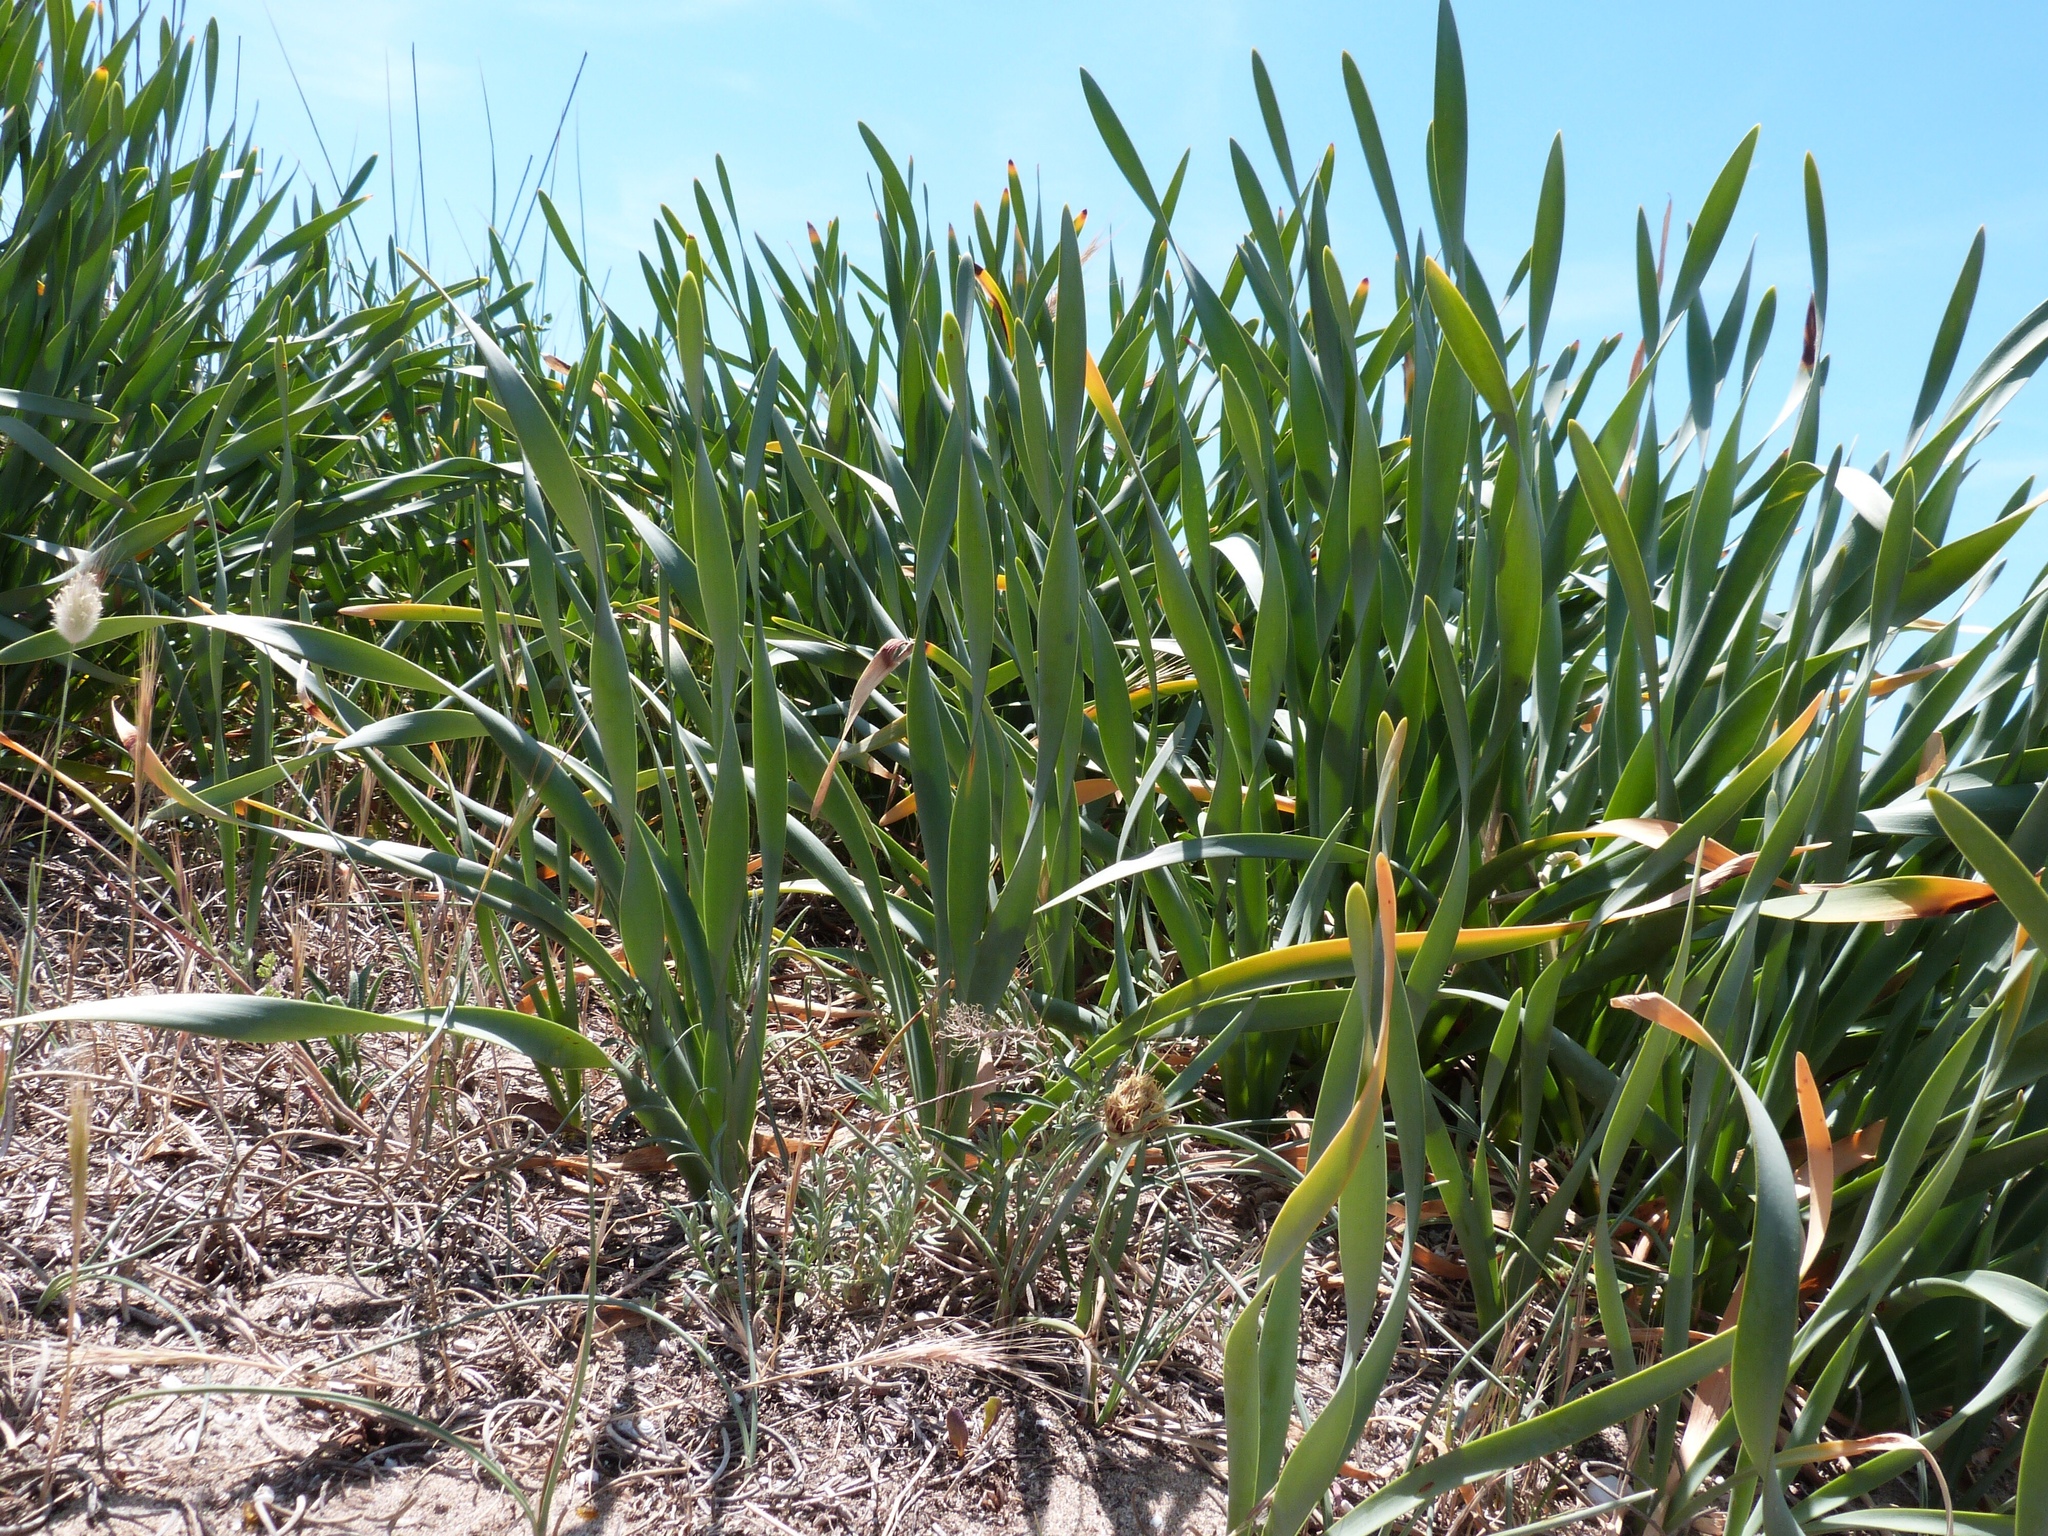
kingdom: Plantae
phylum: Tracheophyta
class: Liliopsida
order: Asparagales
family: Amaryllidaceae
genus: Pancratium
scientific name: Pancratium maritimum
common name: Sea-daffodil
